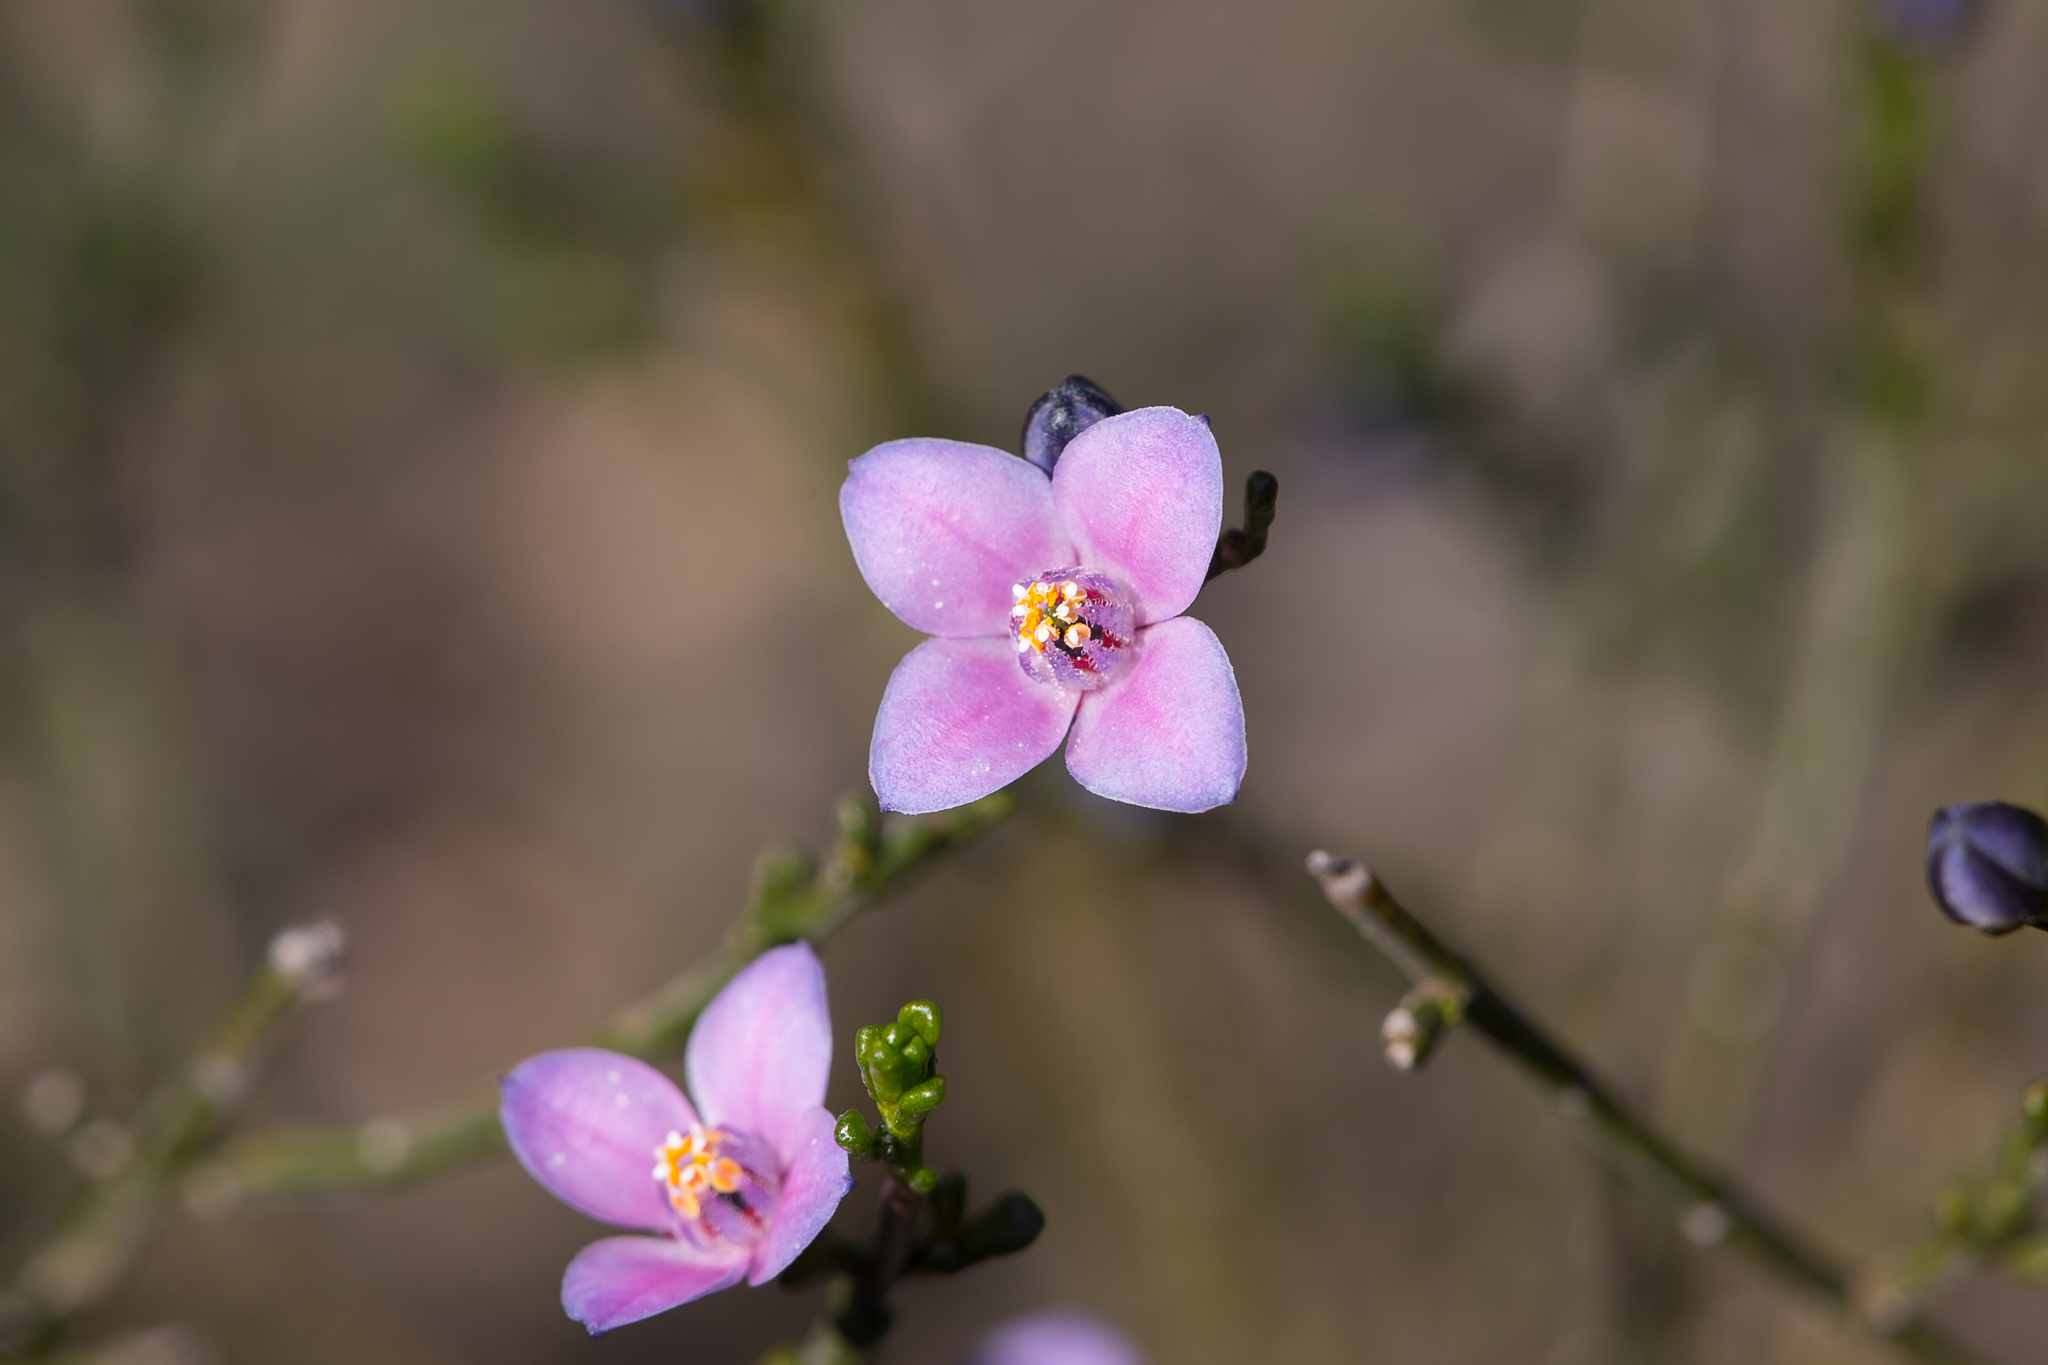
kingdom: Plantae
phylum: Tracheophyta
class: Magnoliopsida
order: Sapindales
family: Rutaceae
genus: Cyanothamnus
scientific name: Cyanothamnus coerulescens
